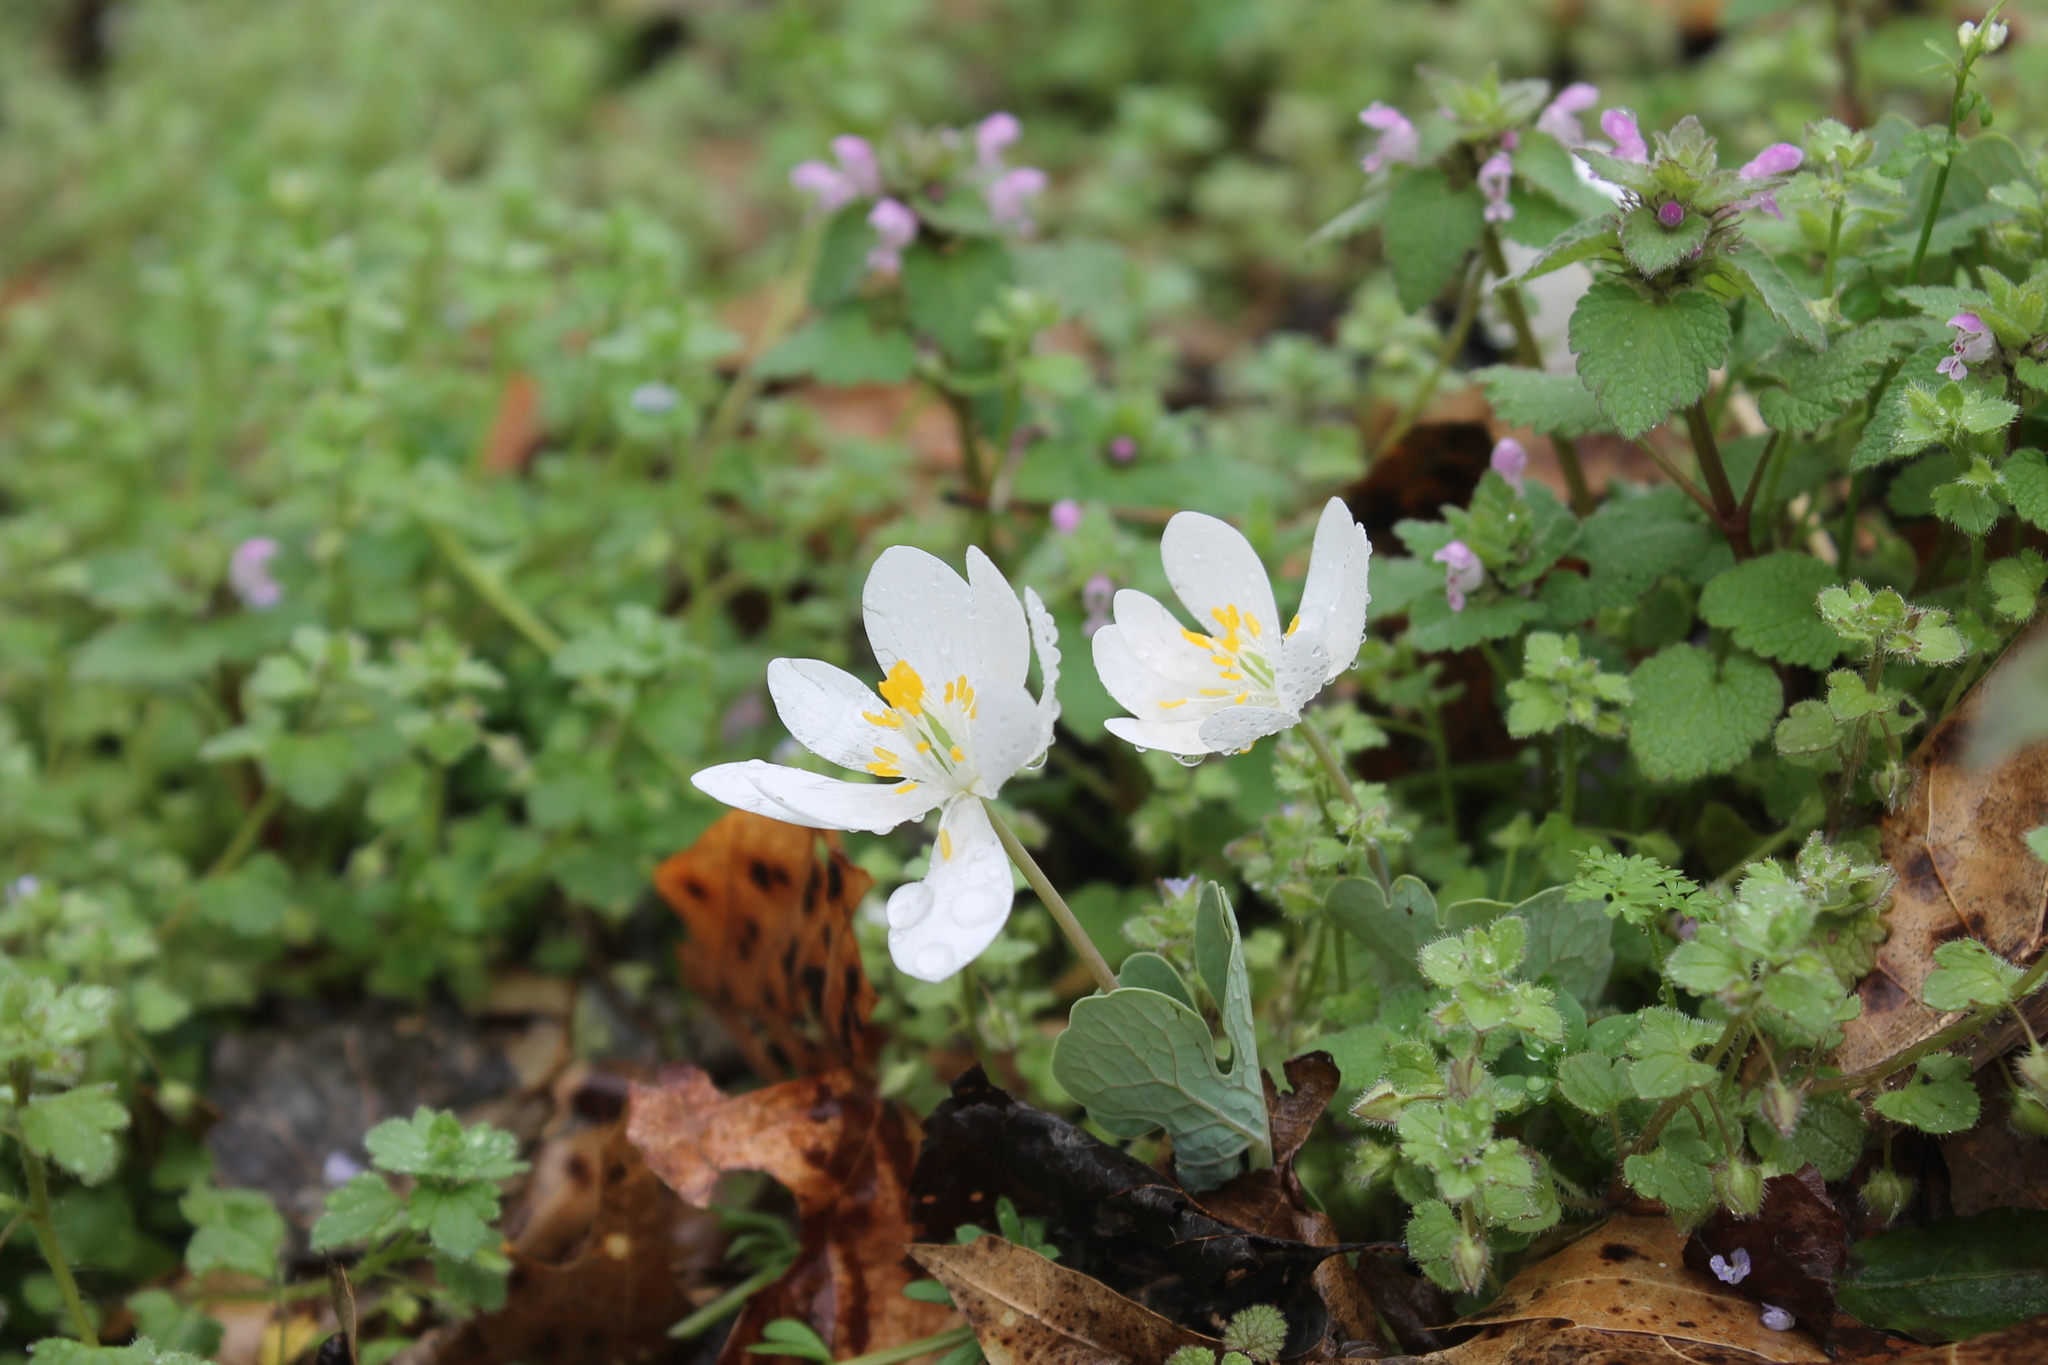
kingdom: Plantae
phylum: Tracheophyta
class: Magnoliopsida
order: Ranunculales
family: Papaveraceae
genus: Sanguinaria
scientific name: Sanguinaria canadensis
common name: Bloodroot
